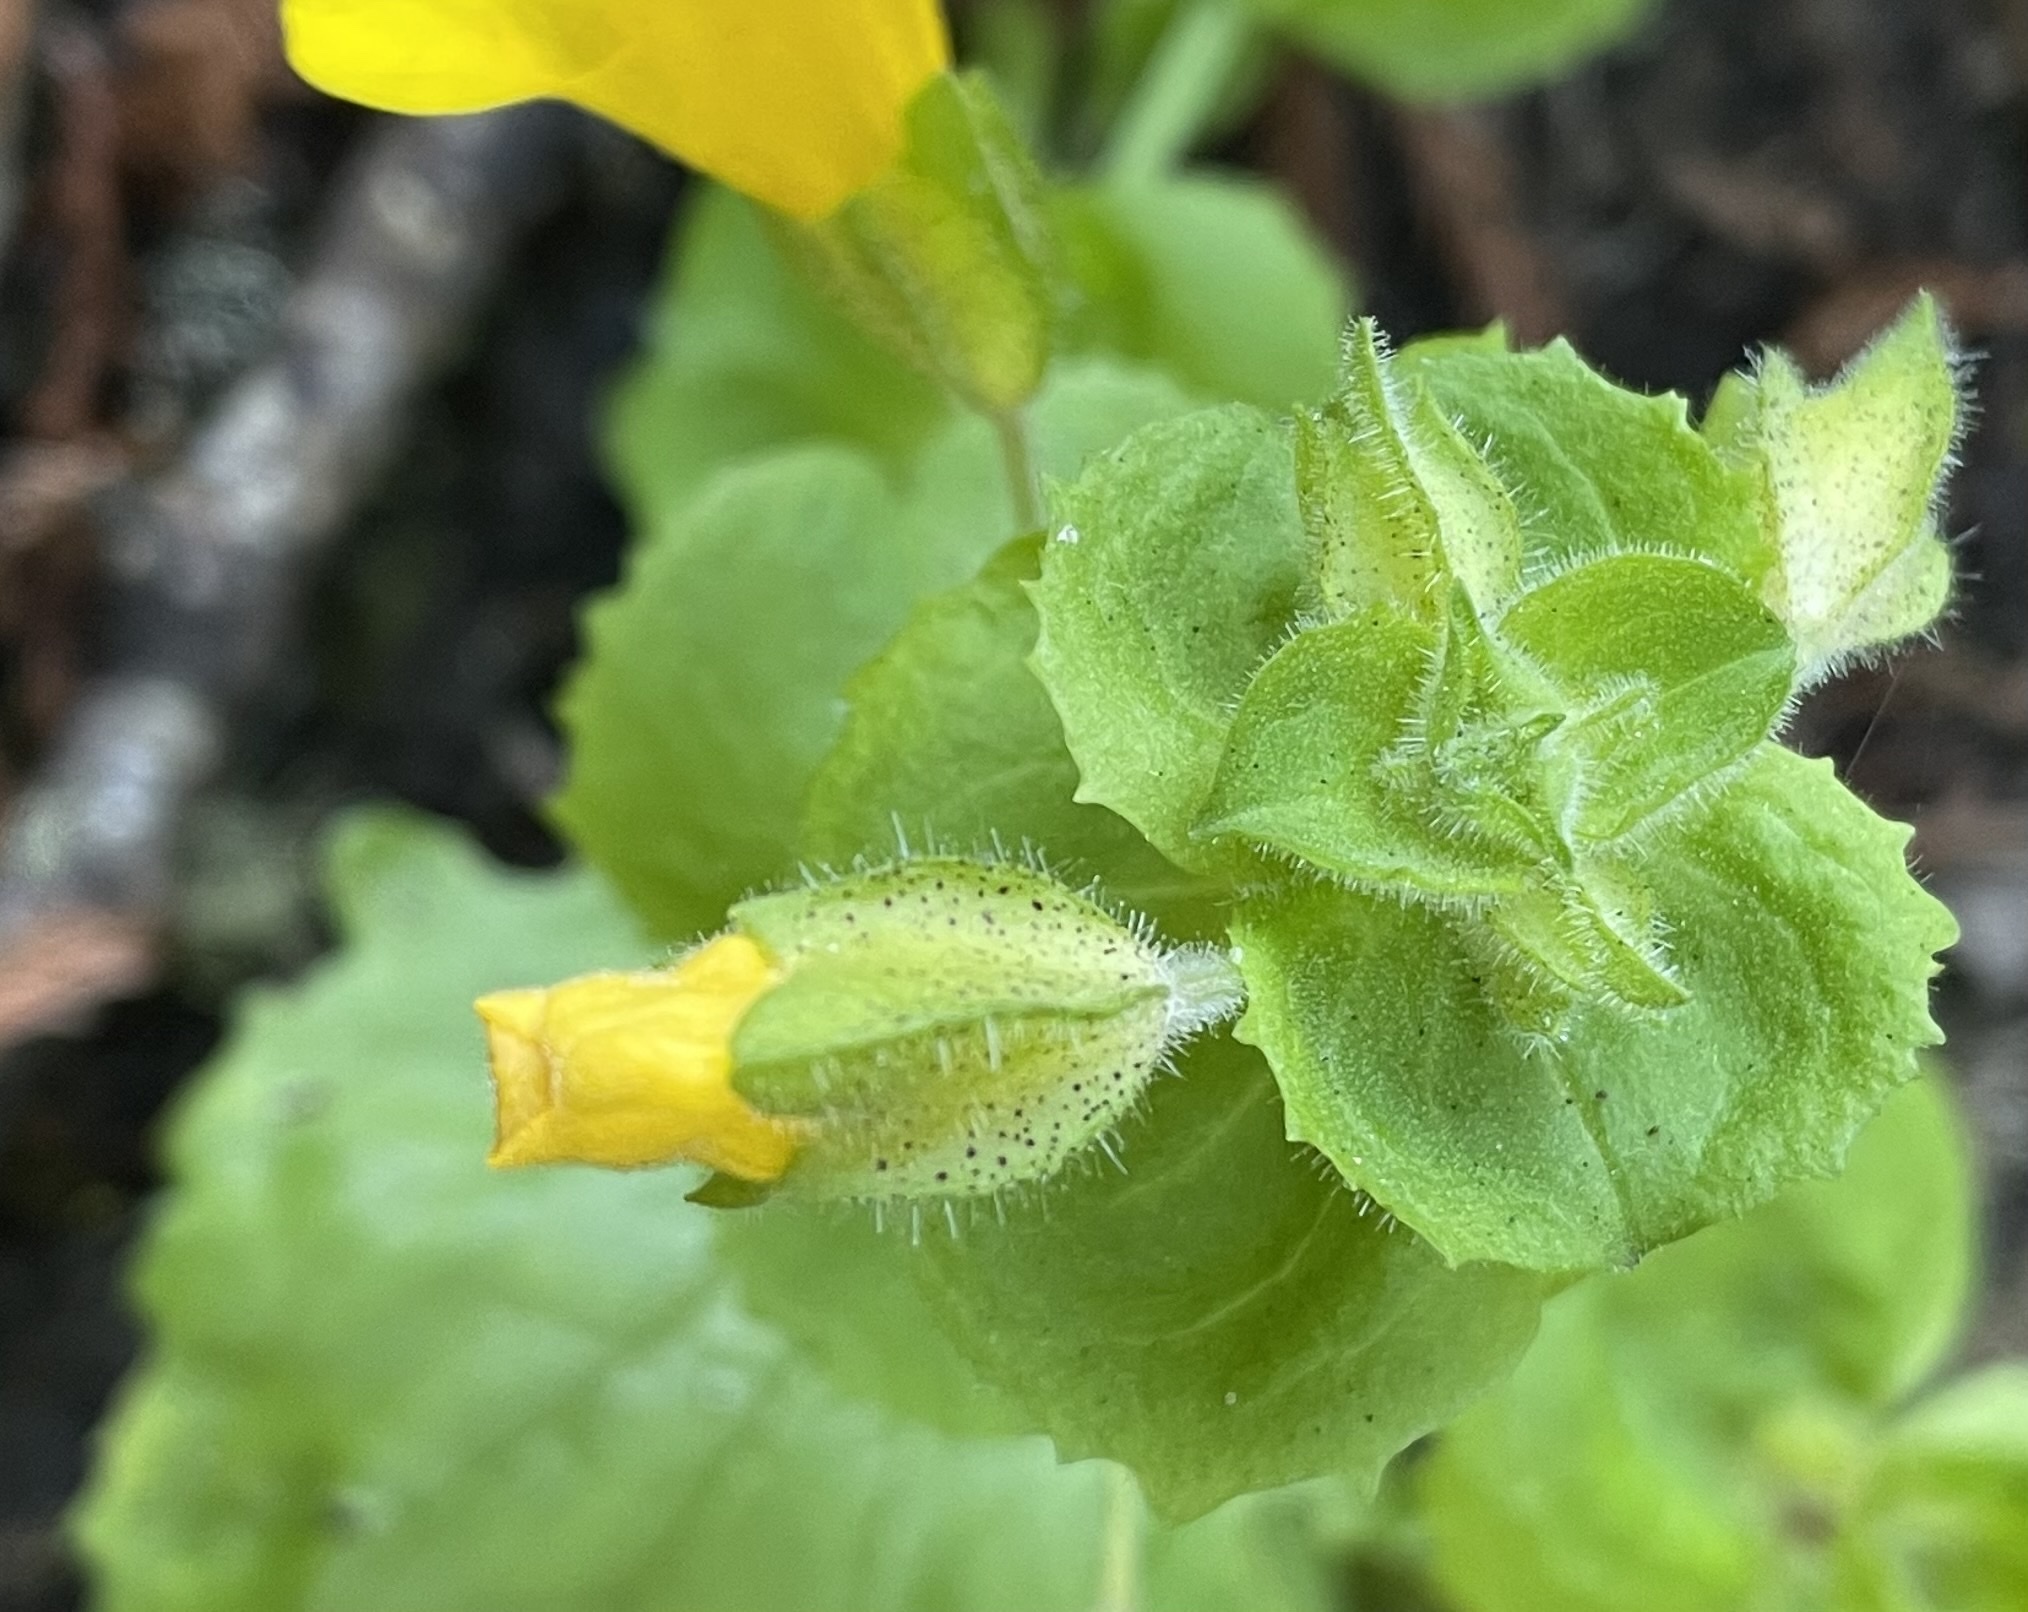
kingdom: Plantae
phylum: Tracheophyta
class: Magnoliopsida
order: Lamiales
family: Phrymaceae
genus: Erythranthe
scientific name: Erythranthe guttata
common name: Monkeyflower
